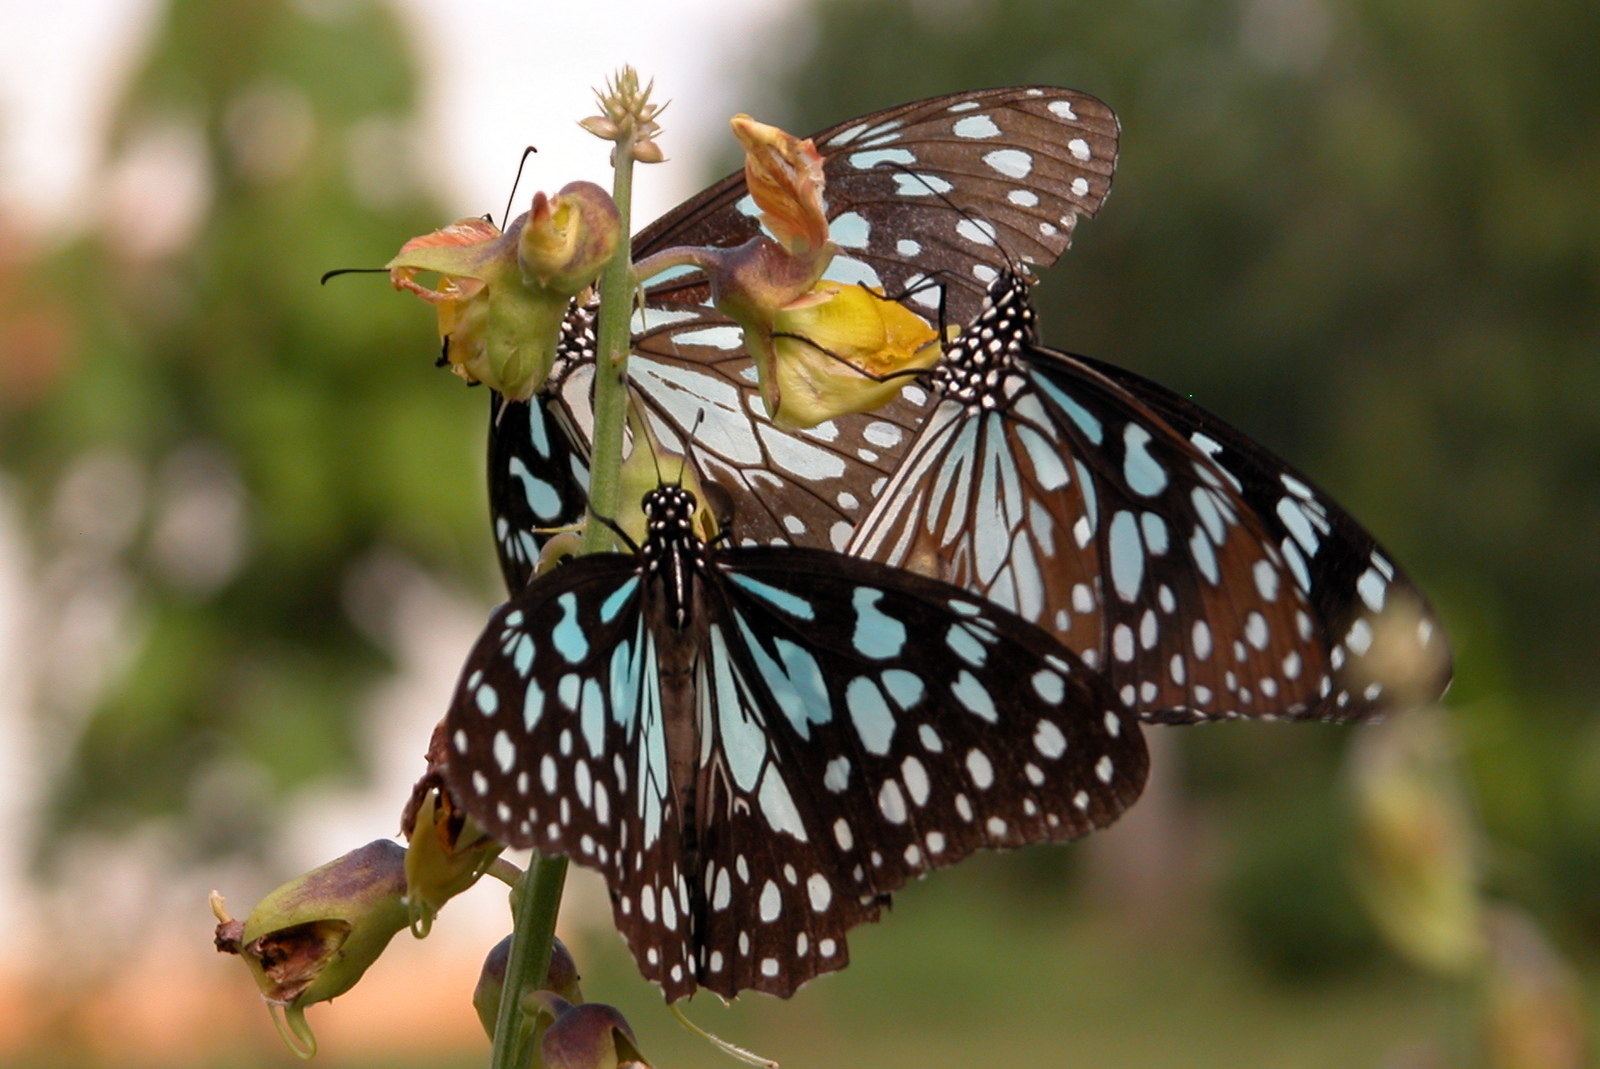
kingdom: Animalia
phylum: Arthropoda
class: Insecta
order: Lepidoptera
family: Nymphalidae
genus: Tirumala
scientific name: Tirumala limniace
